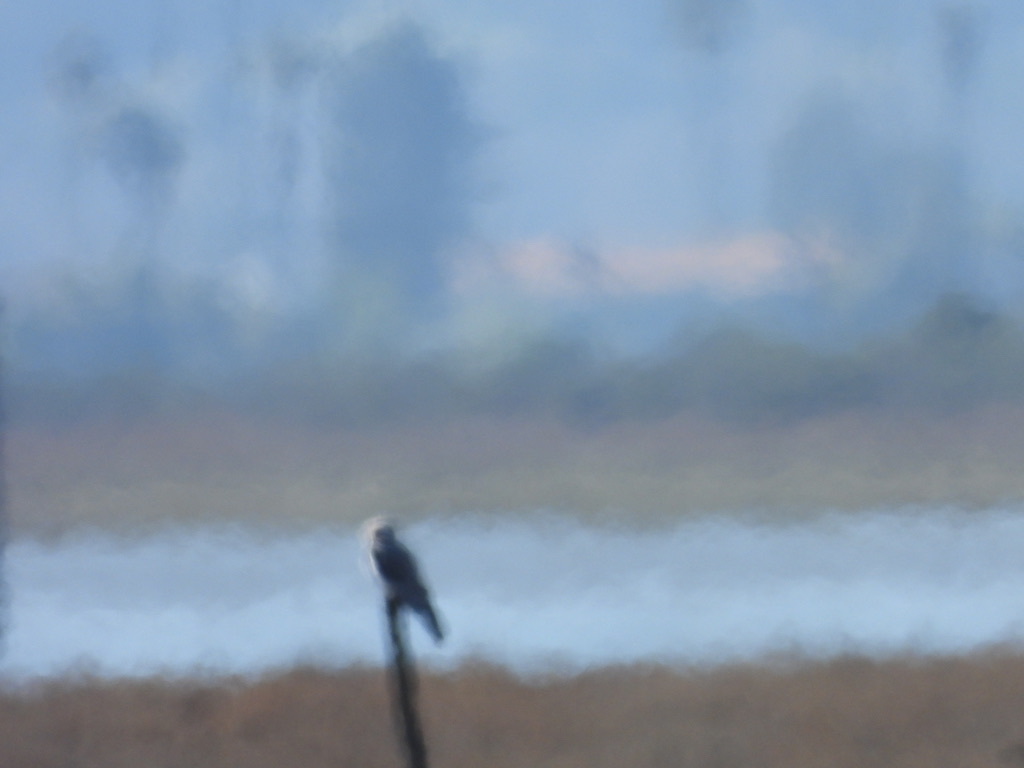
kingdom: Animalia
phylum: Chordata
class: Aves
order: Accipitriformes
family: Accipitridae
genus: Elanus
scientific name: Elanus leucurus
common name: White-tailed kite
